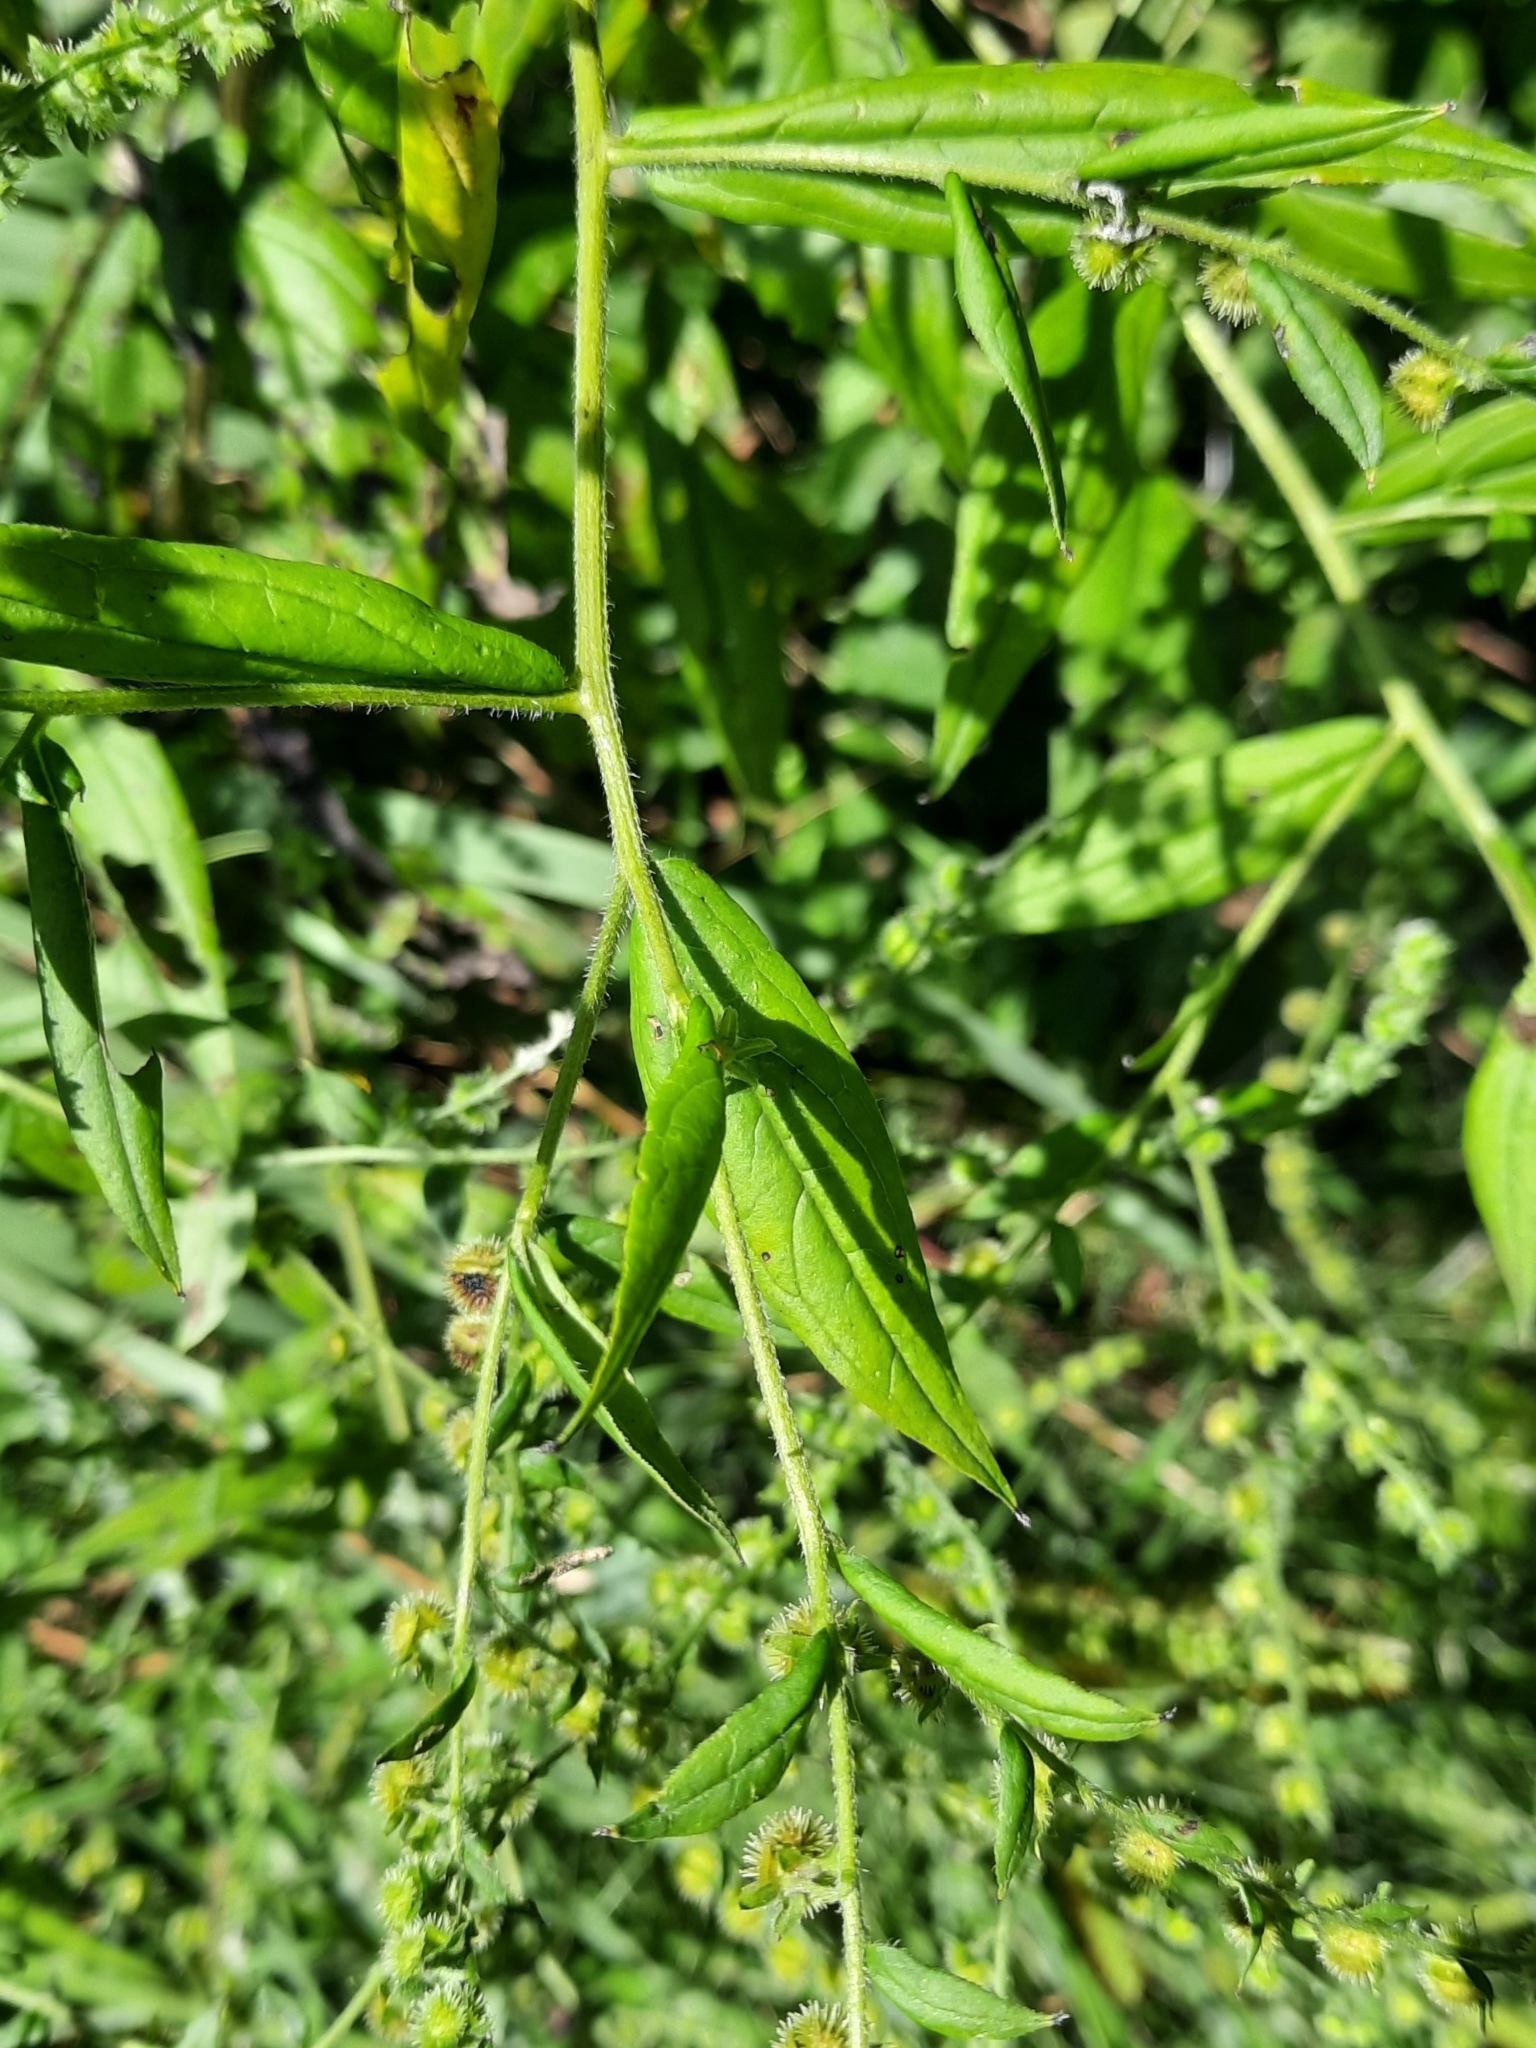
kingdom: Plantae
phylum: Tracheophyta
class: Magnoliopsida
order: Boraginales
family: Boraginaceae
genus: Hackelia
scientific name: Hackelia virginiana
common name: Beggar's-lice
